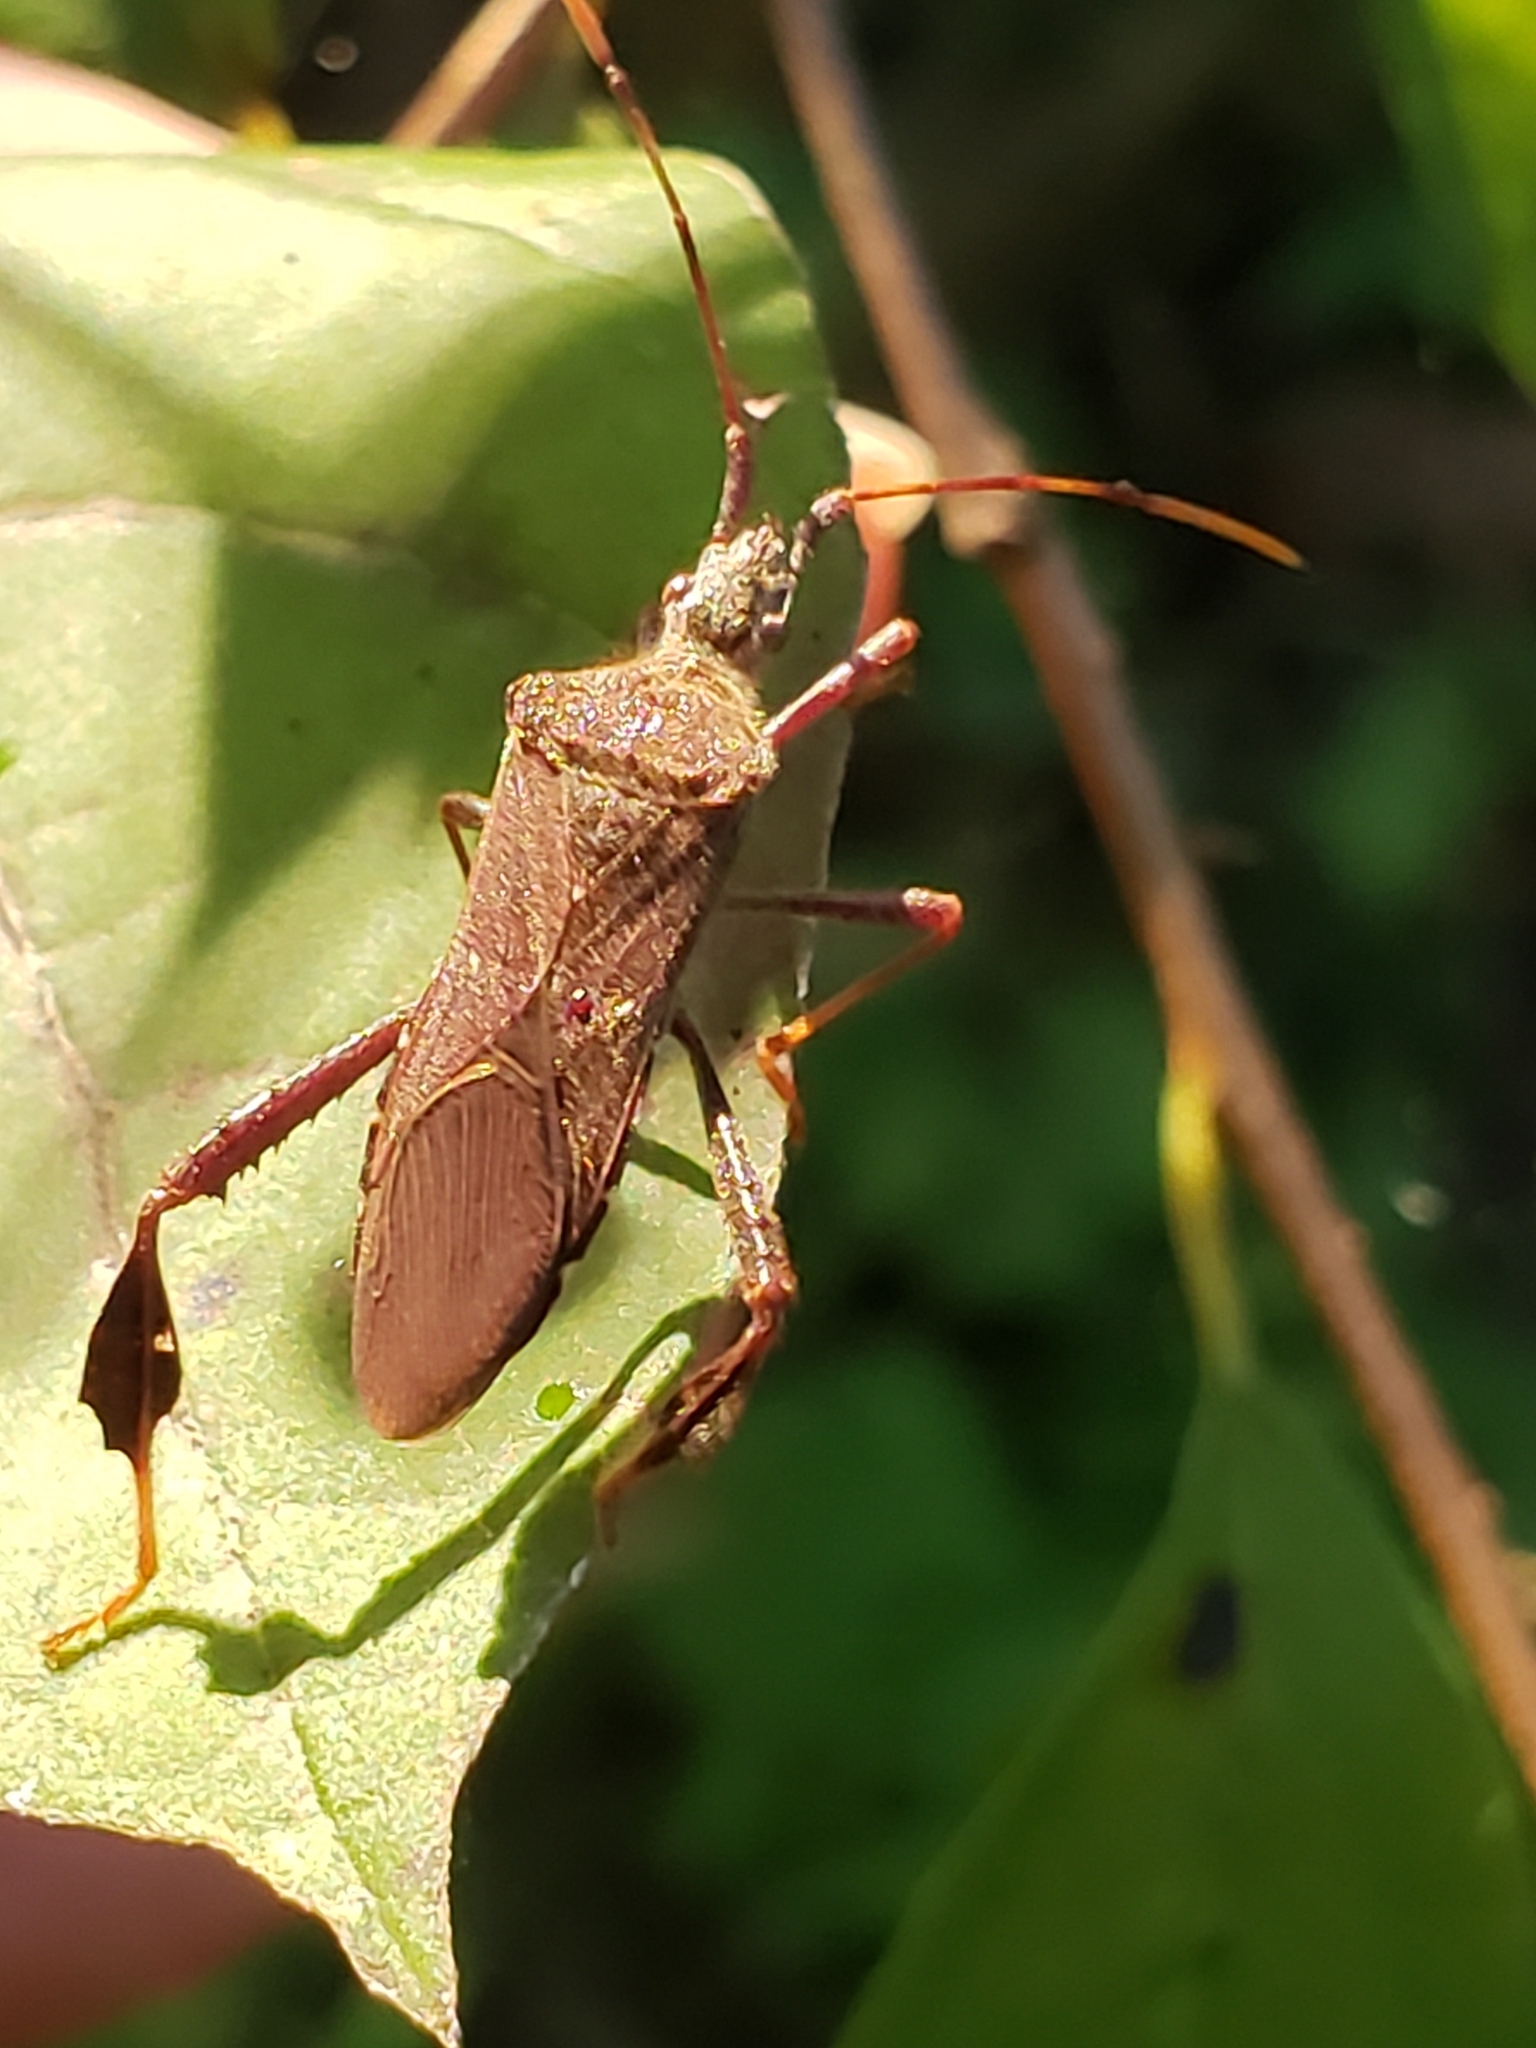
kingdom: Animalia
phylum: Arthropoda
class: Insecta
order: Hemiptera
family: Coreidae
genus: Leptoglossus
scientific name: Leptoglossus oppositus
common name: Northern leaf-footed bug
